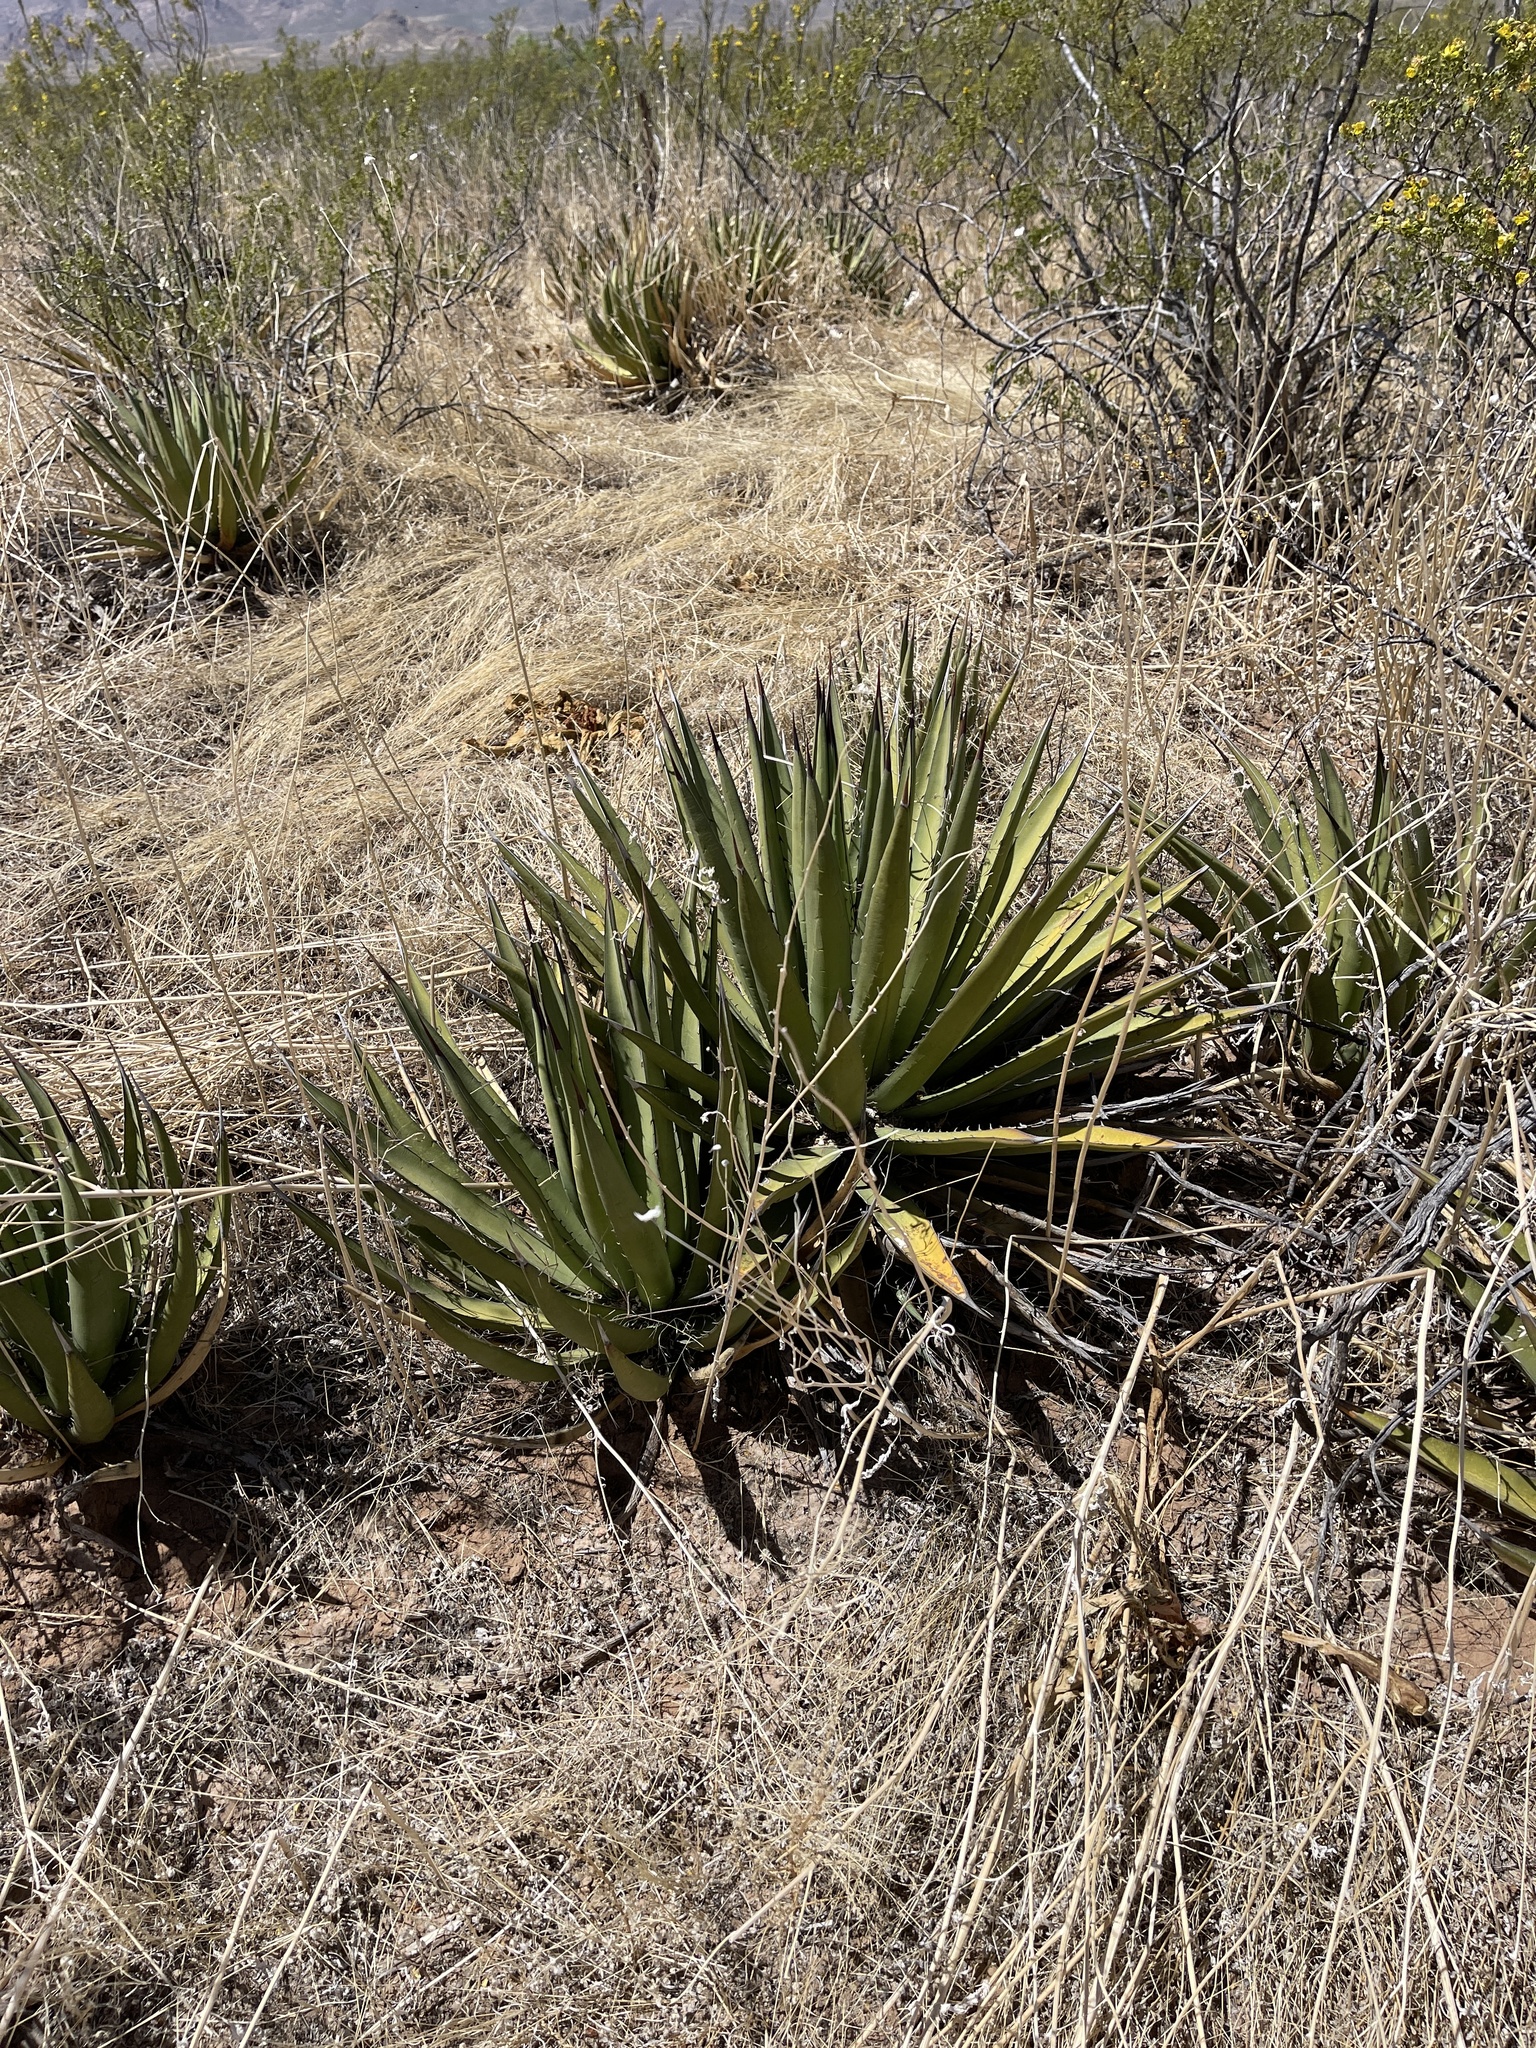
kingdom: Plantae
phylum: Tracheophyta
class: Liliopsida
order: Asparagales
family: Asparagaceae
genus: Agave
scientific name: Agave lechuguilla
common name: Lecheguilla agave
